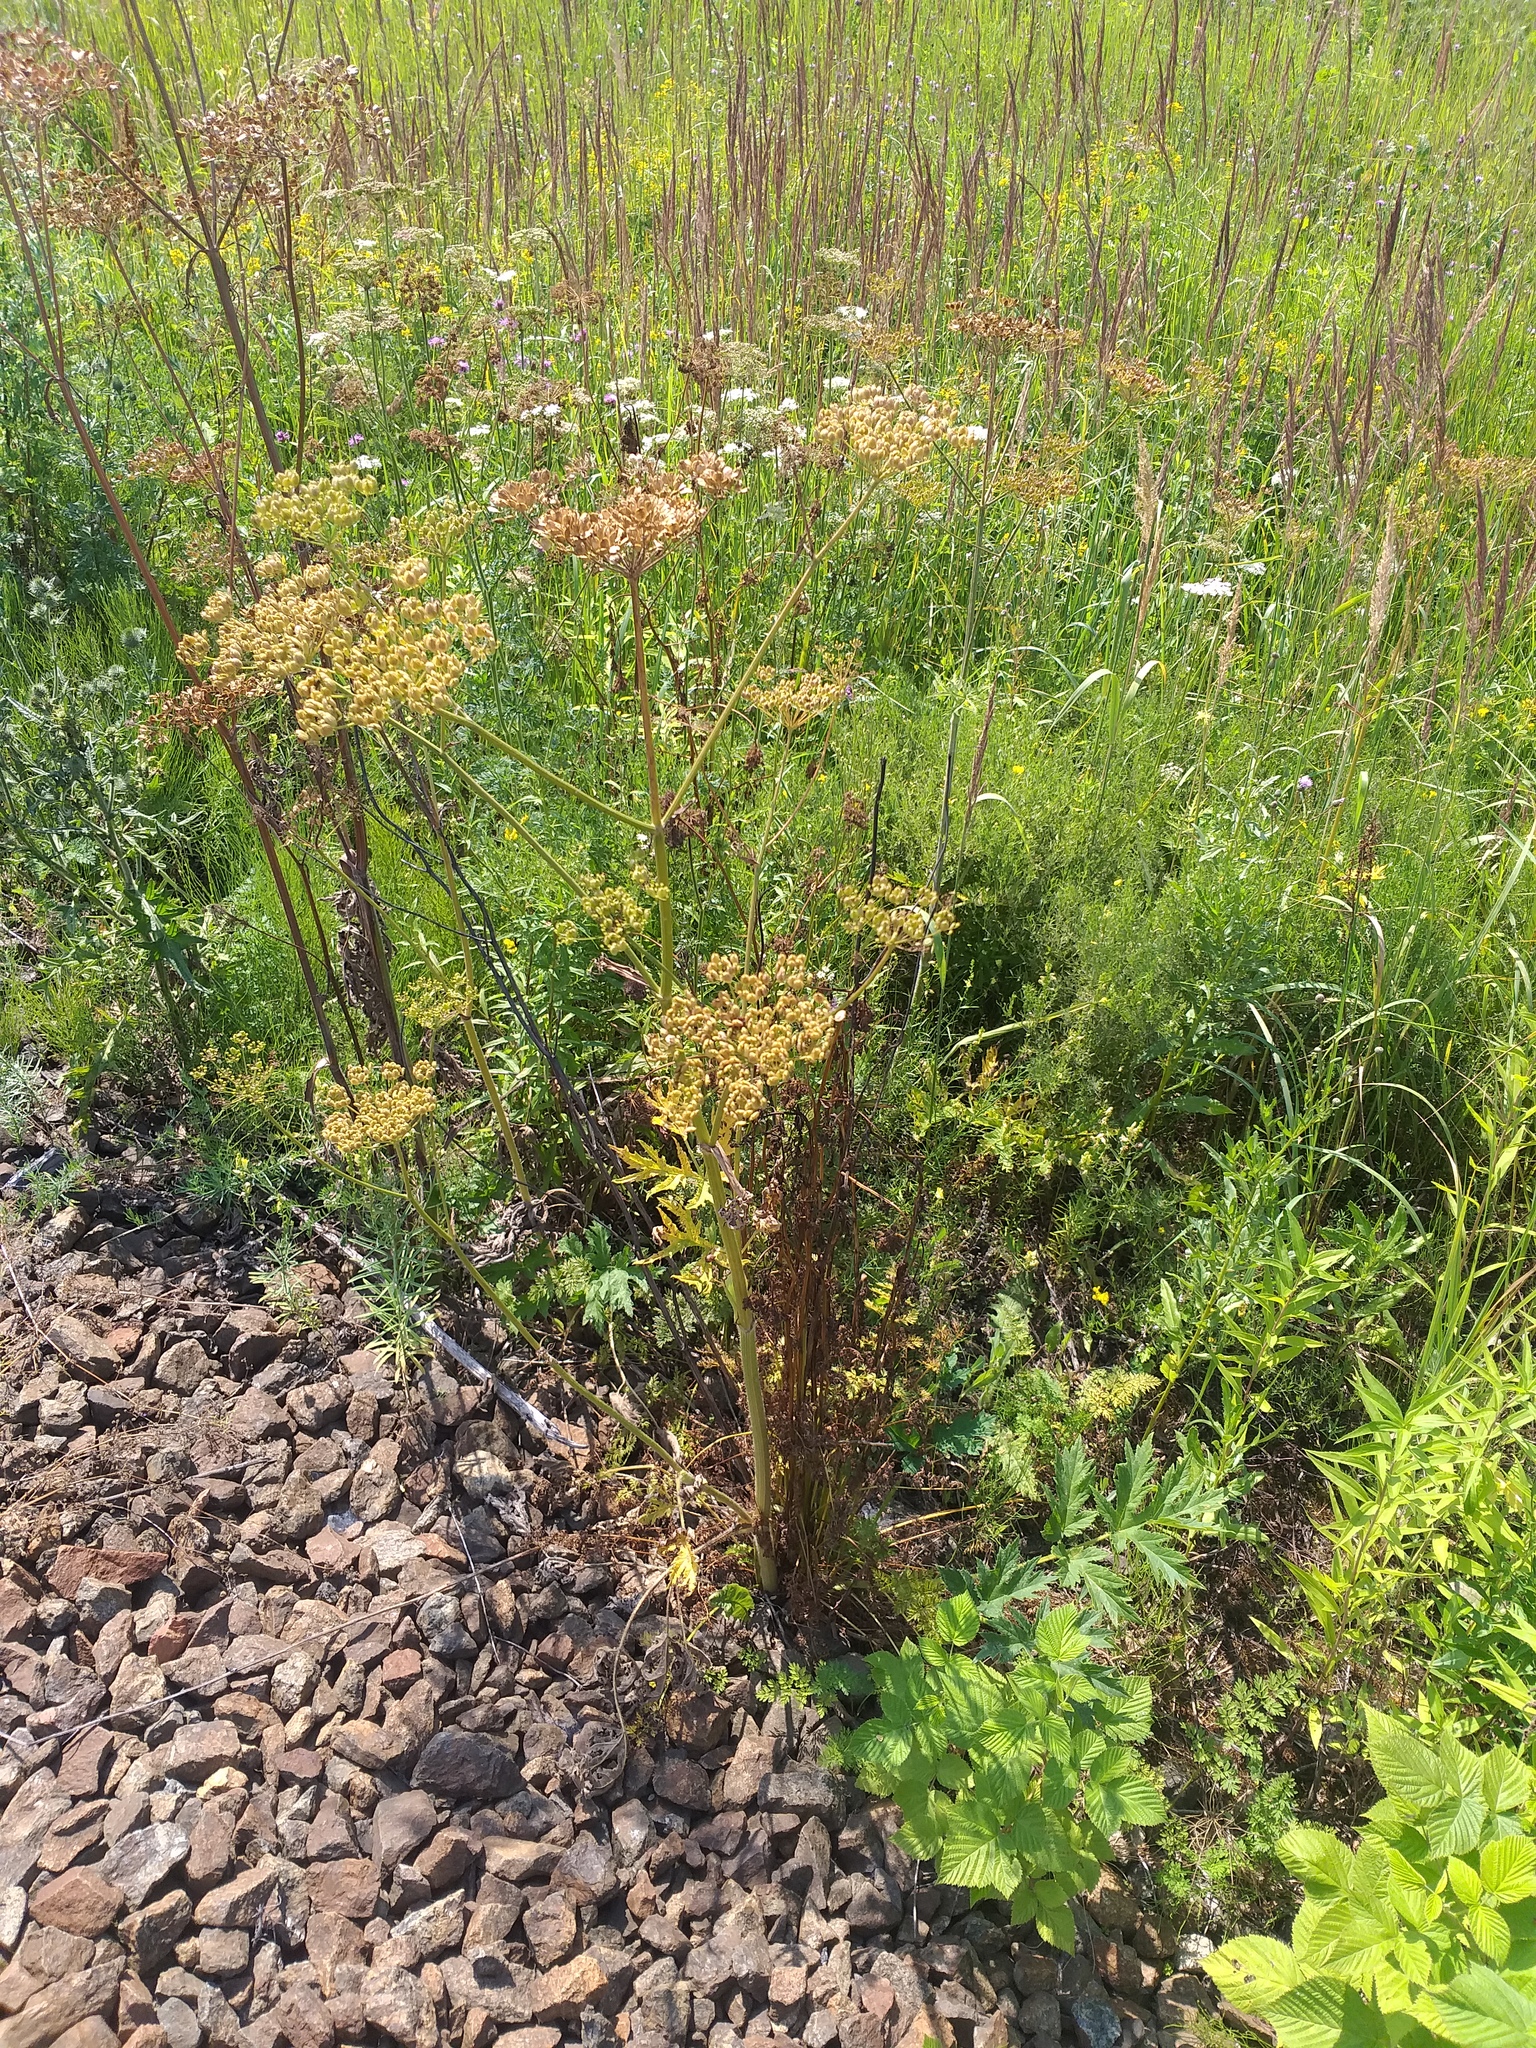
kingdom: Plantae
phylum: Tracheophyta
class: Magnoliopsida
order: Apiales
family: Apiaceae
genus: Heracleum
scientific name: Heracleum sphondylium
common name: Hogweed
